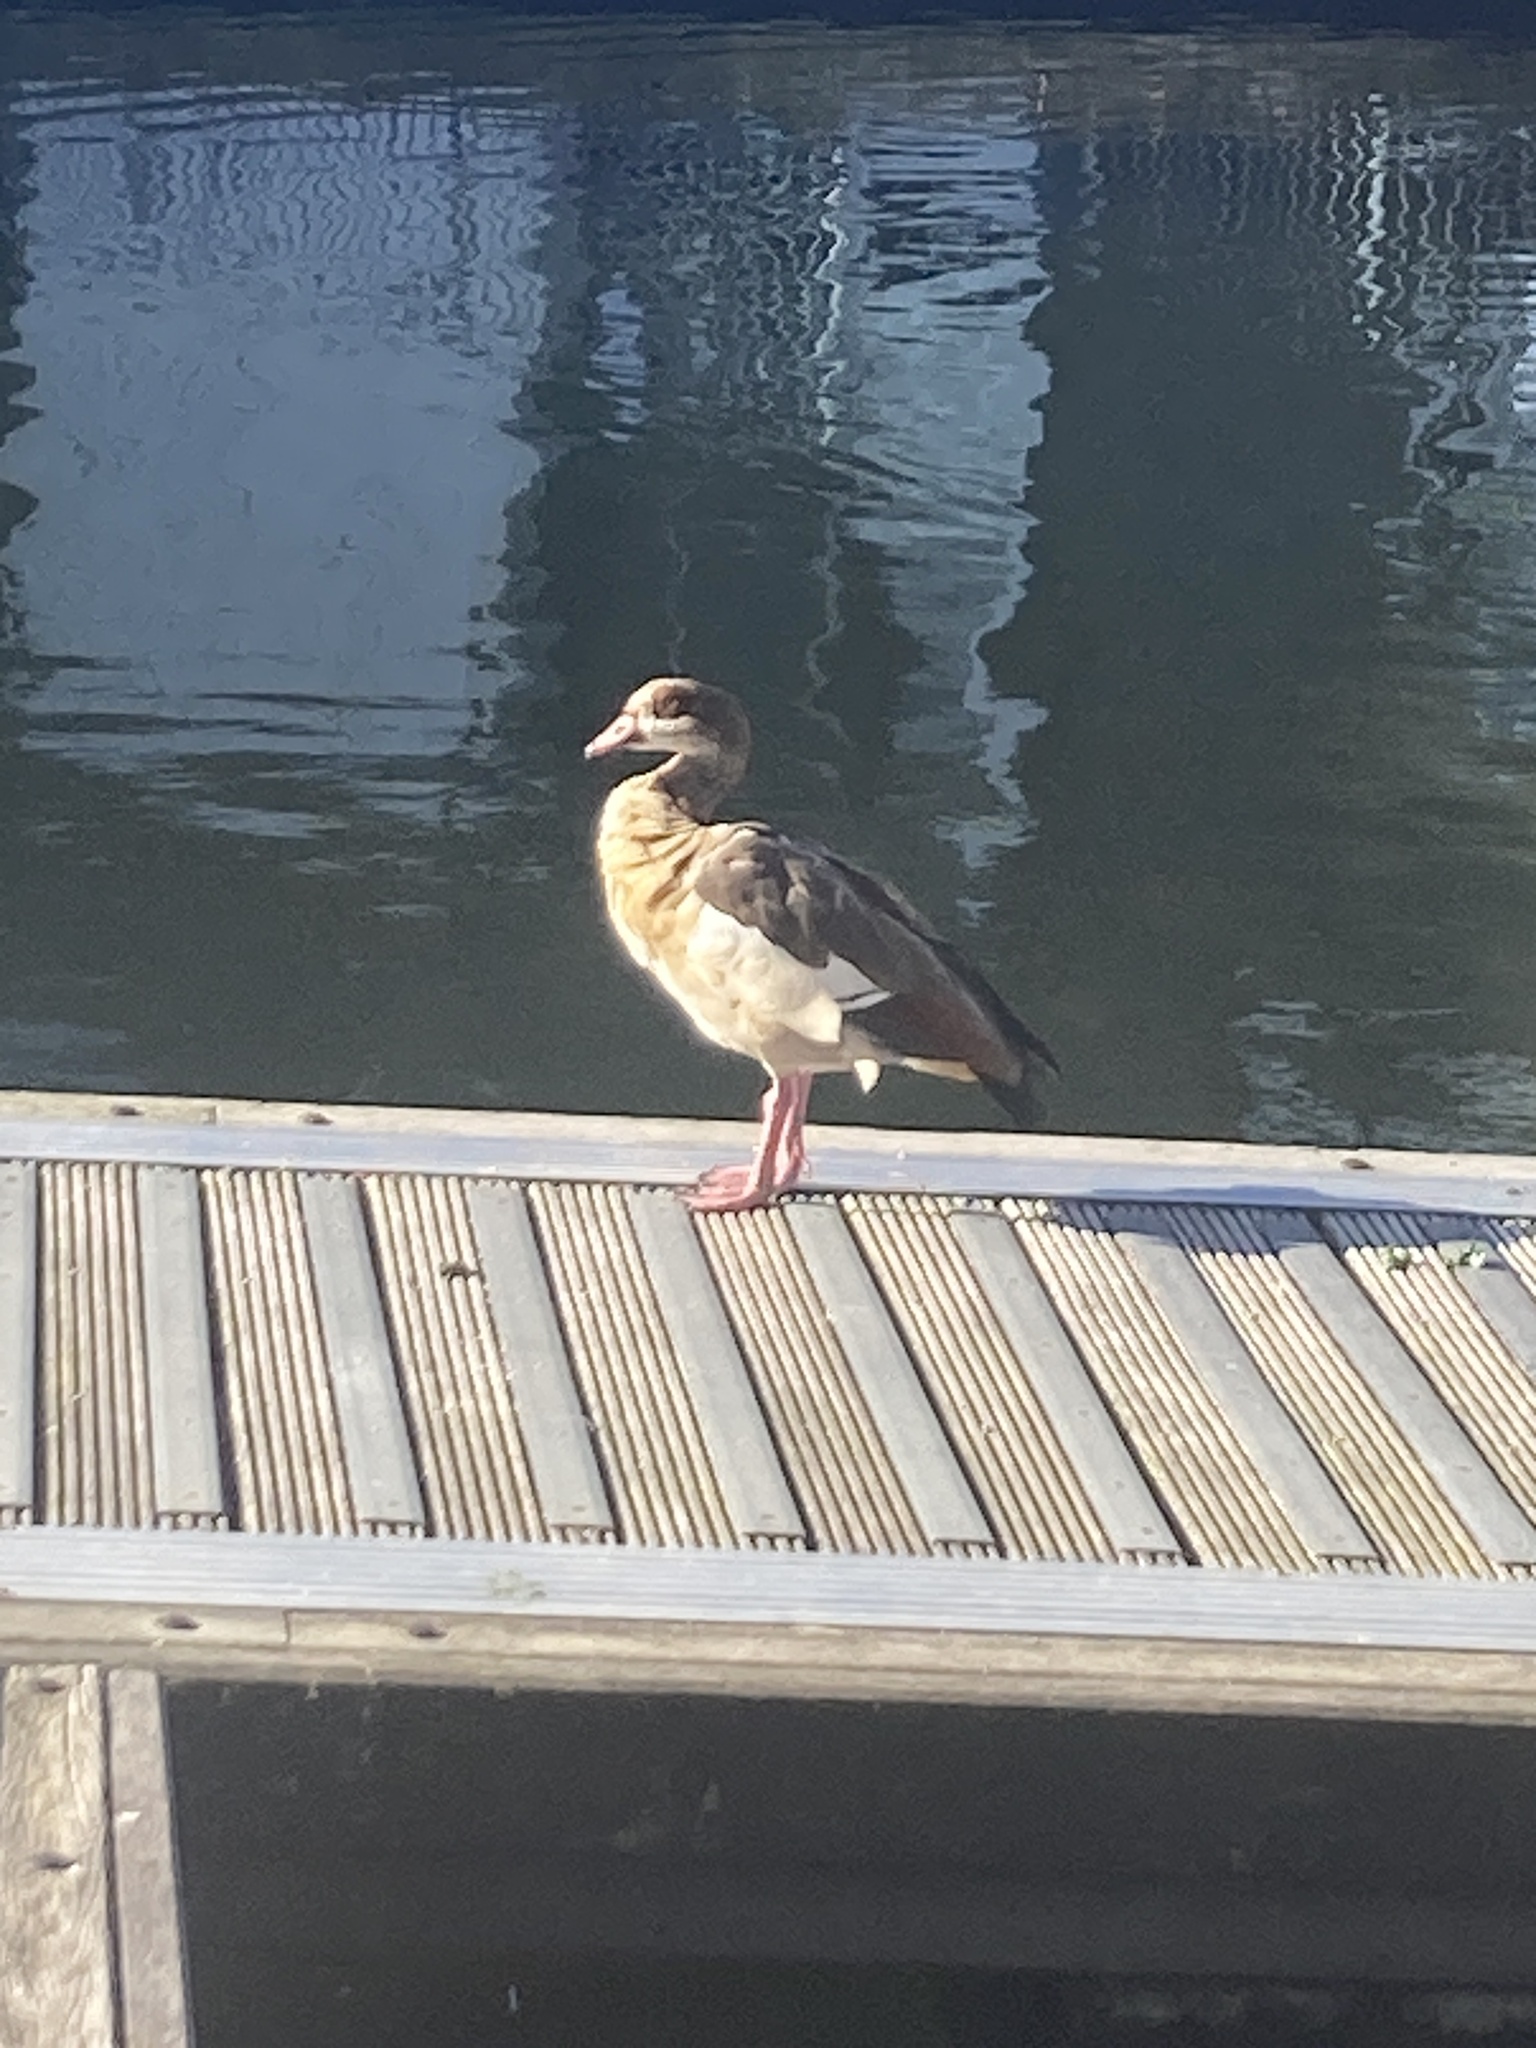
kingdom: Animalia
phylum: Chordata
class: Aves
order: Anseriformes
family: Anatidae
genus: Alopochen
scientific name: Alopochen aegyptiaca
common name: Egyptian goose
